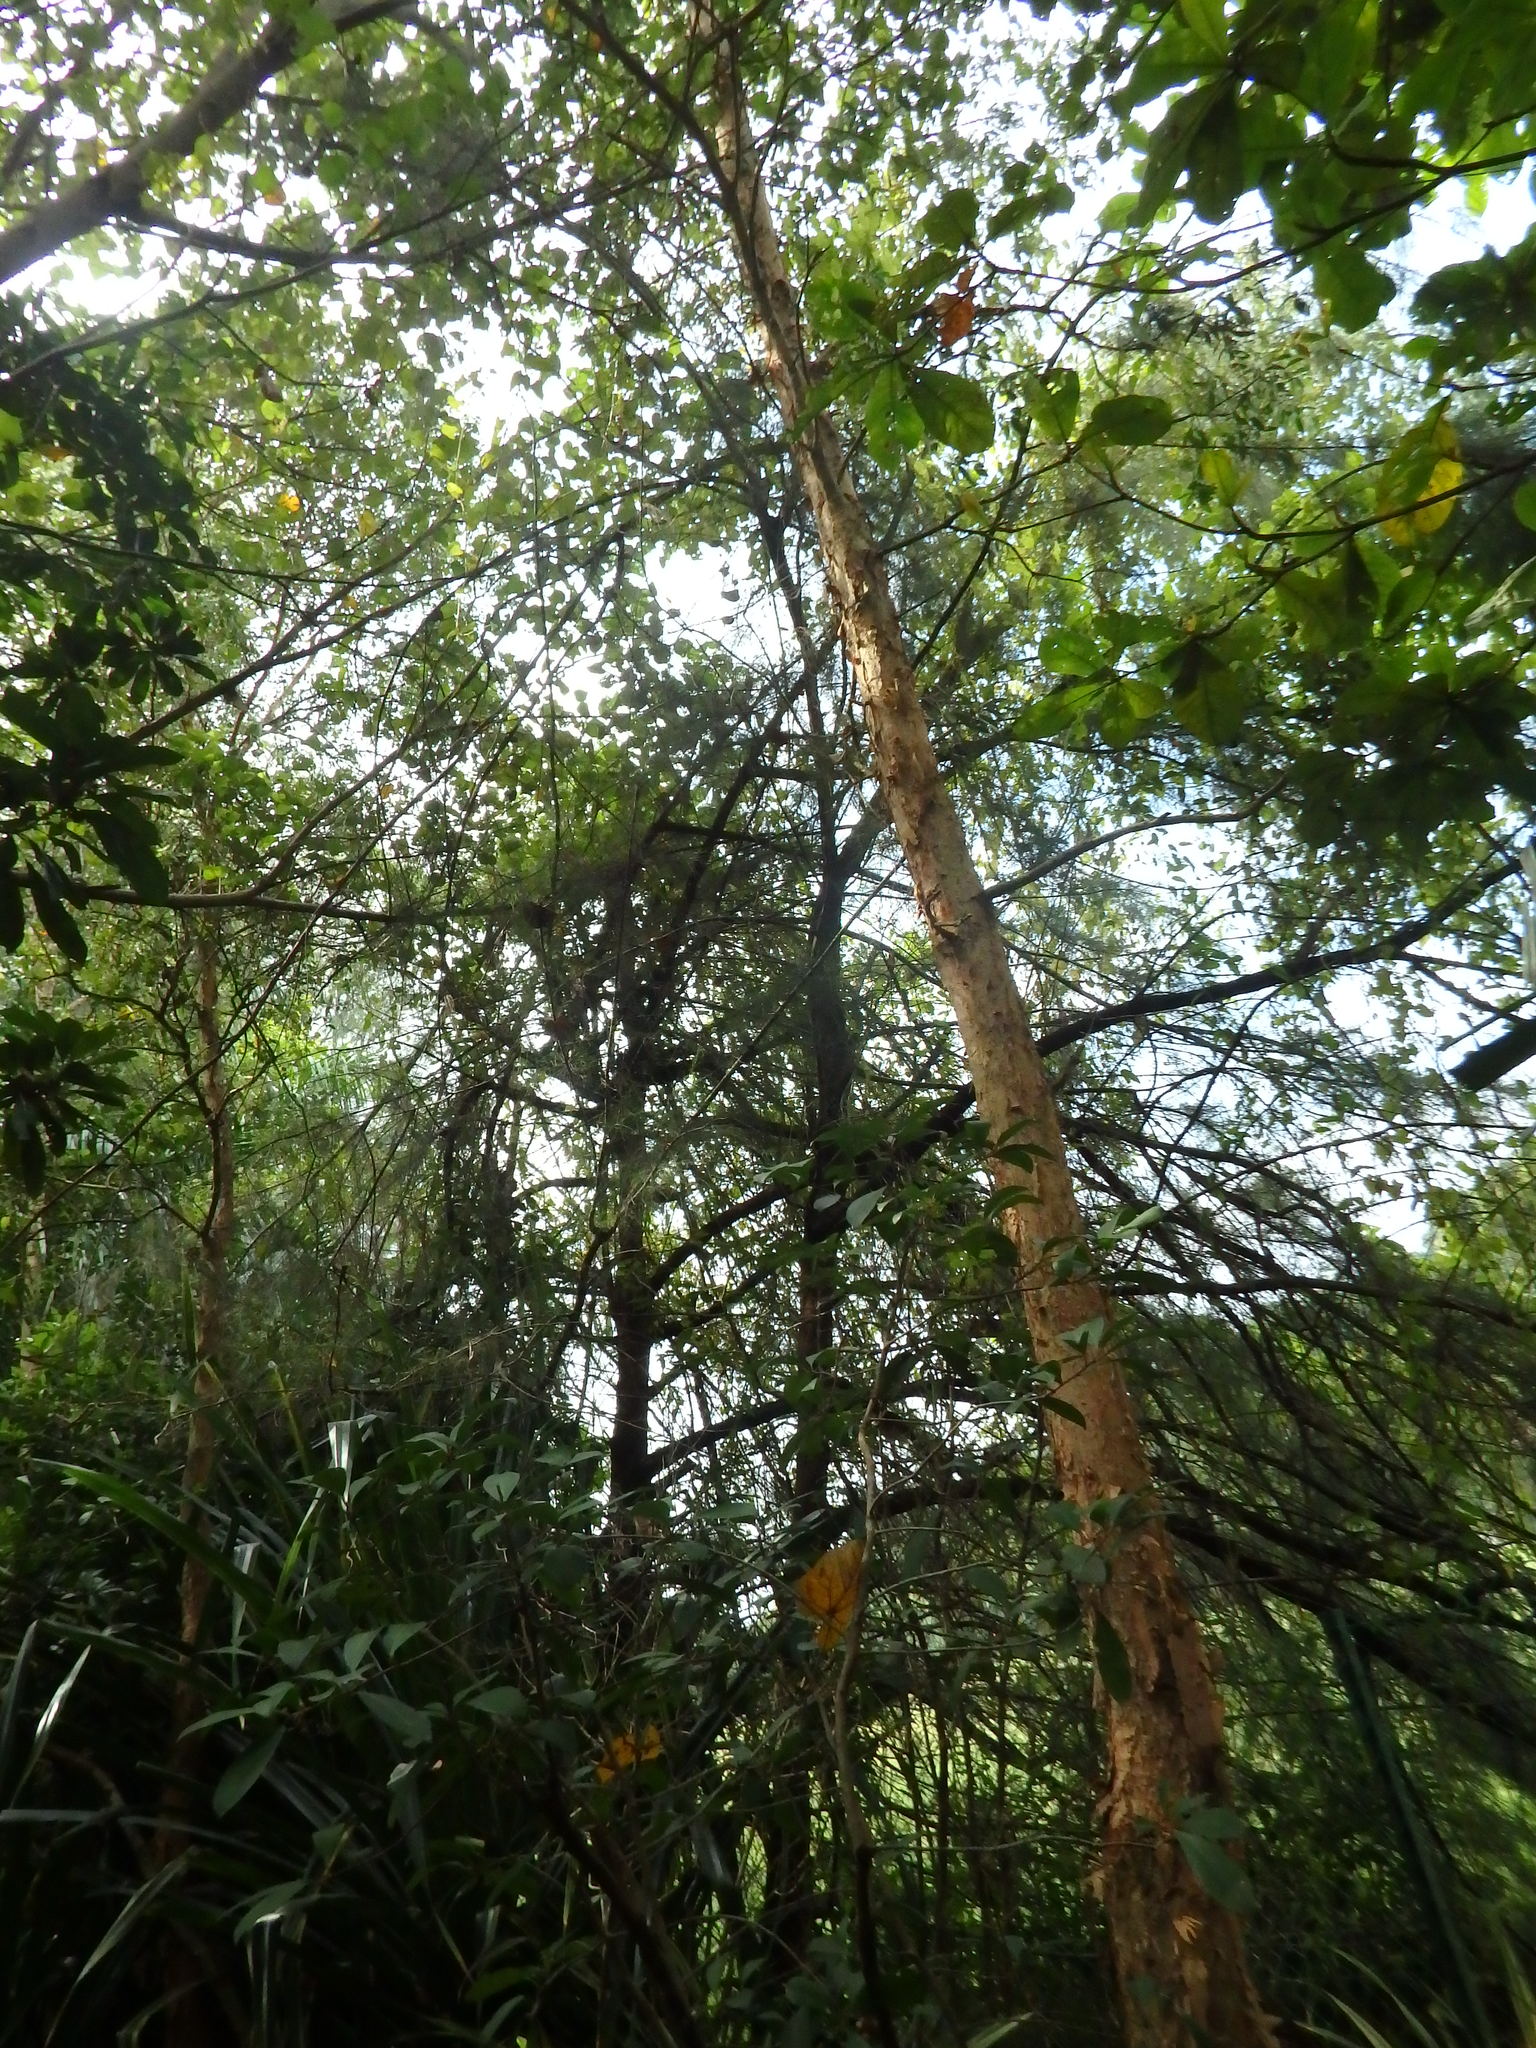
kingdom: Plantae
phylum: Tracheophyta
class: Magnoliopsida
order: Fagales
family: Casuarinaceae
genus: Casuarina
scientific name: Casuarina equisetifolia
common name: Beach sheoak
